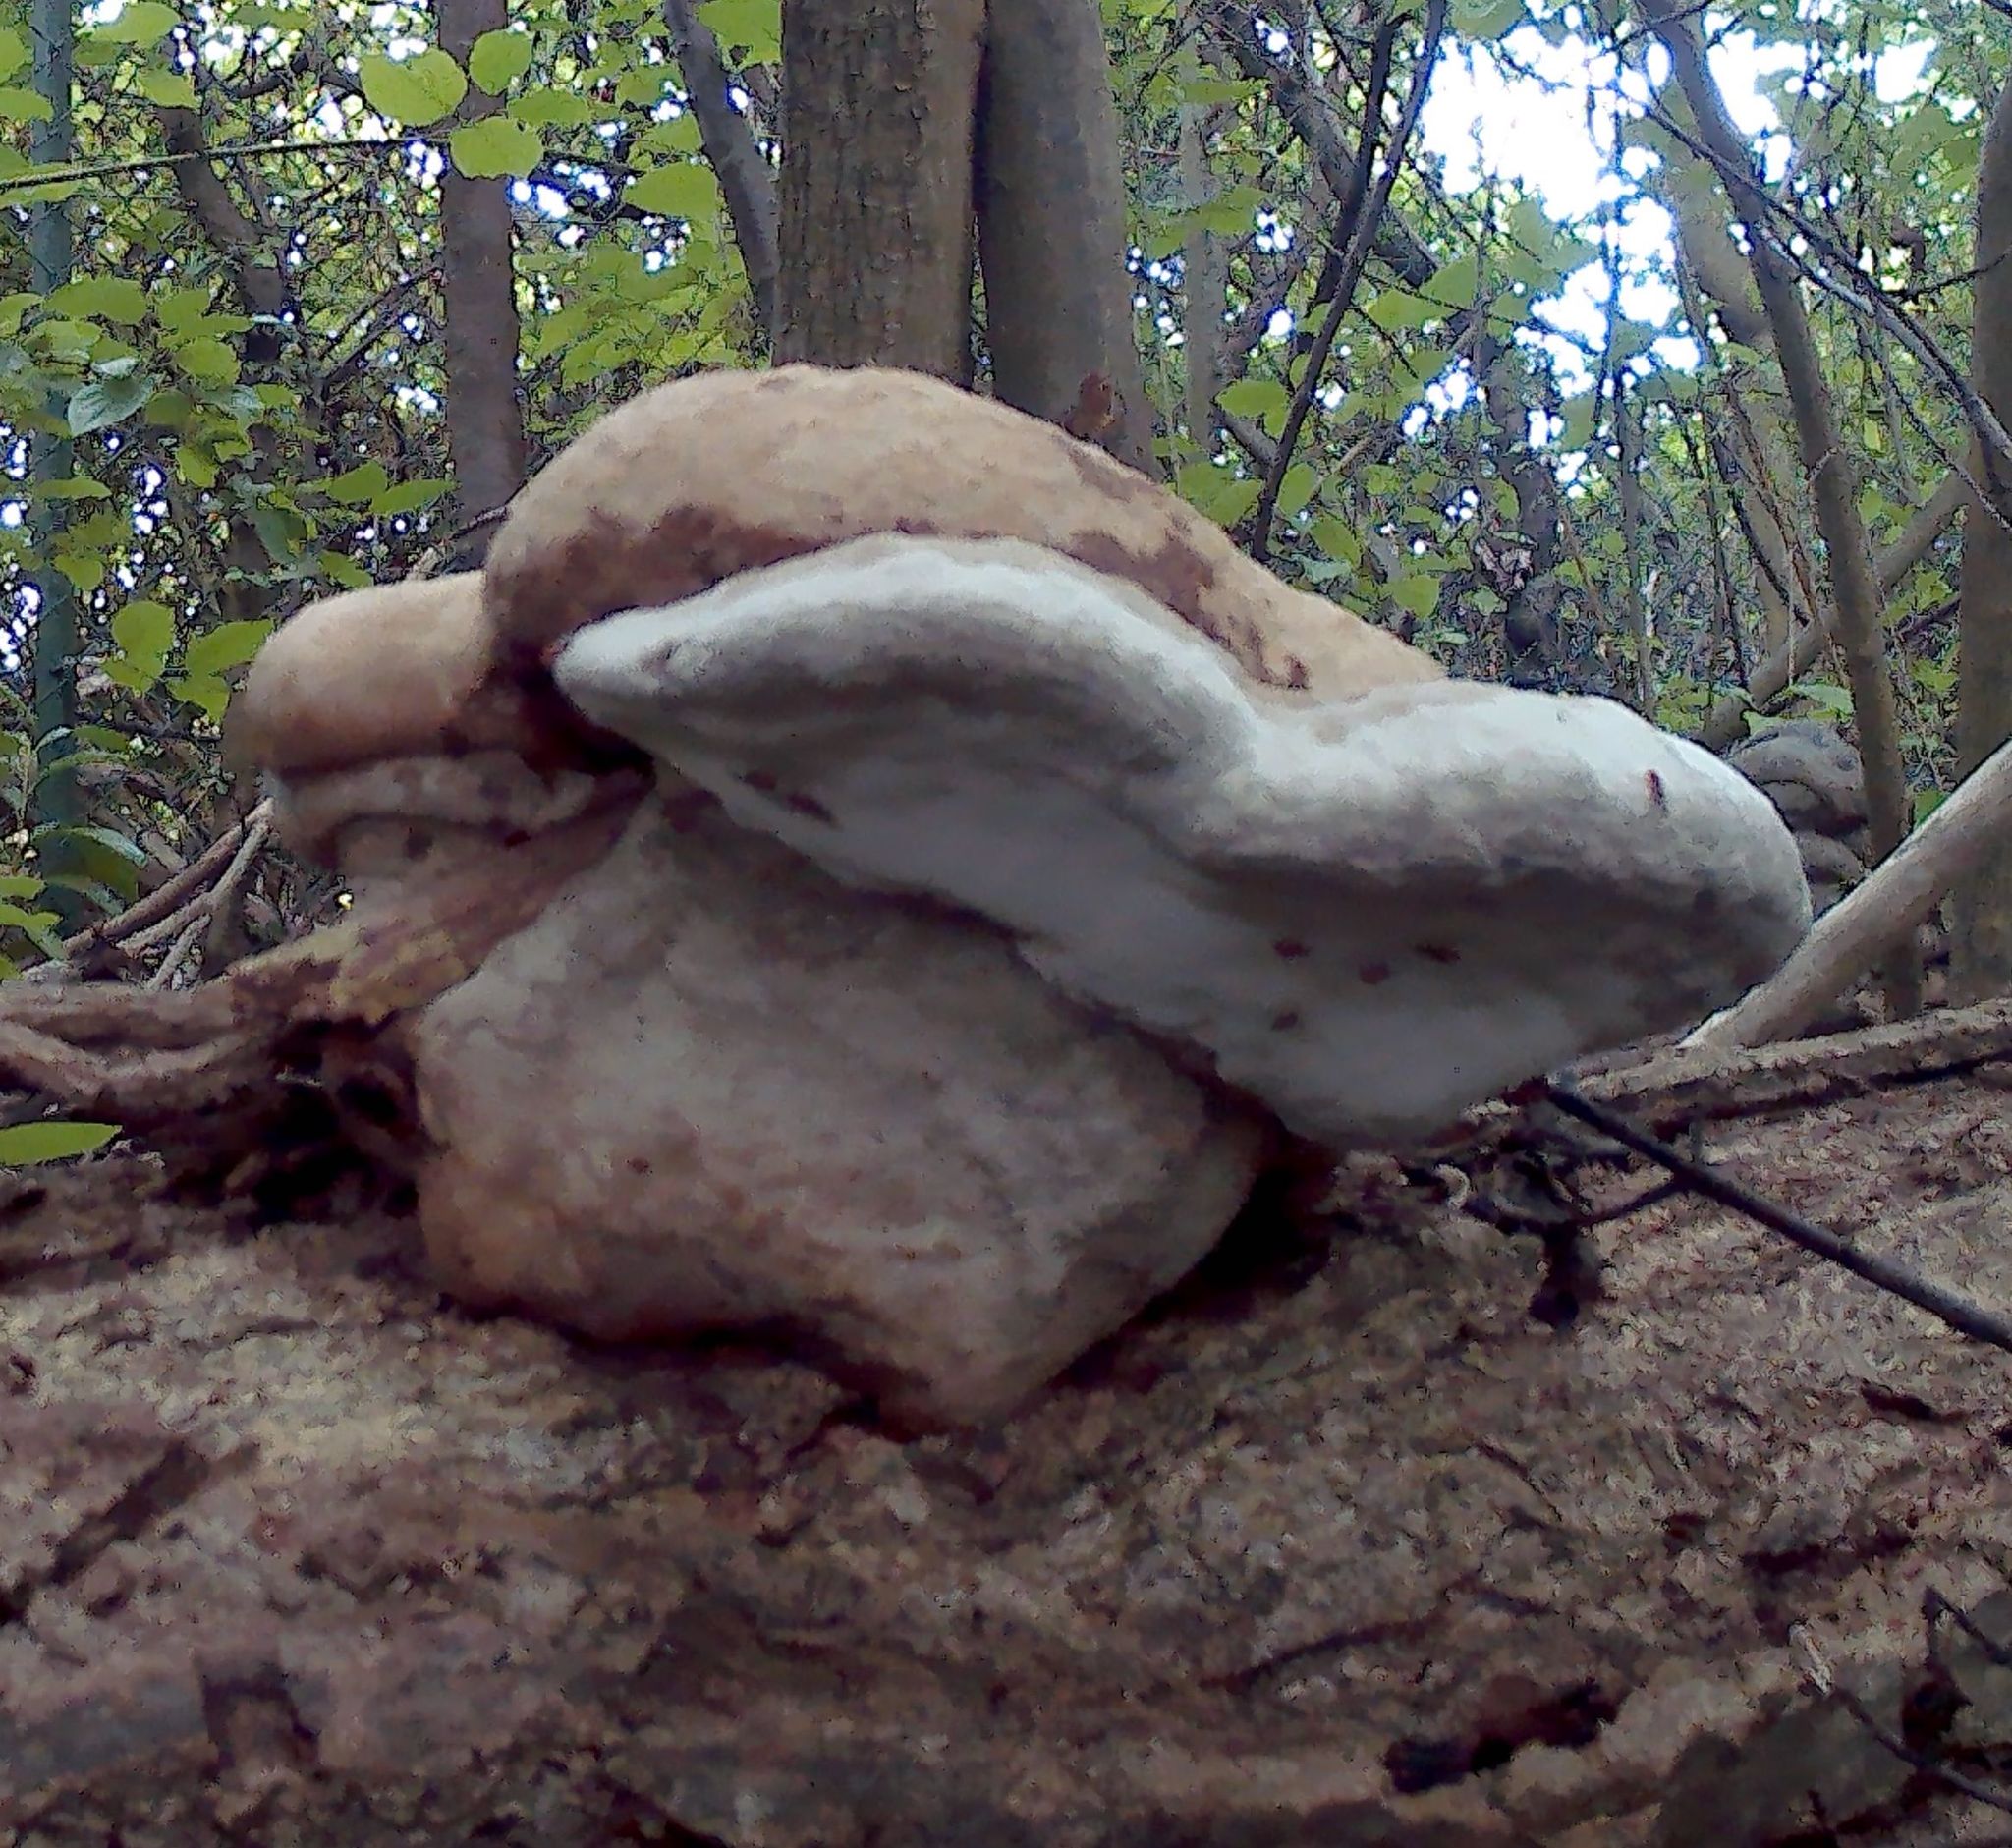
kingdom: Fungi
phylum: Basidiomycota
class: Agaricomycetes
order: Polyporales
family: Polyporaceae
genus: Fomes
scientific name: Fomes fomentarius
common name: Hoof fungus
